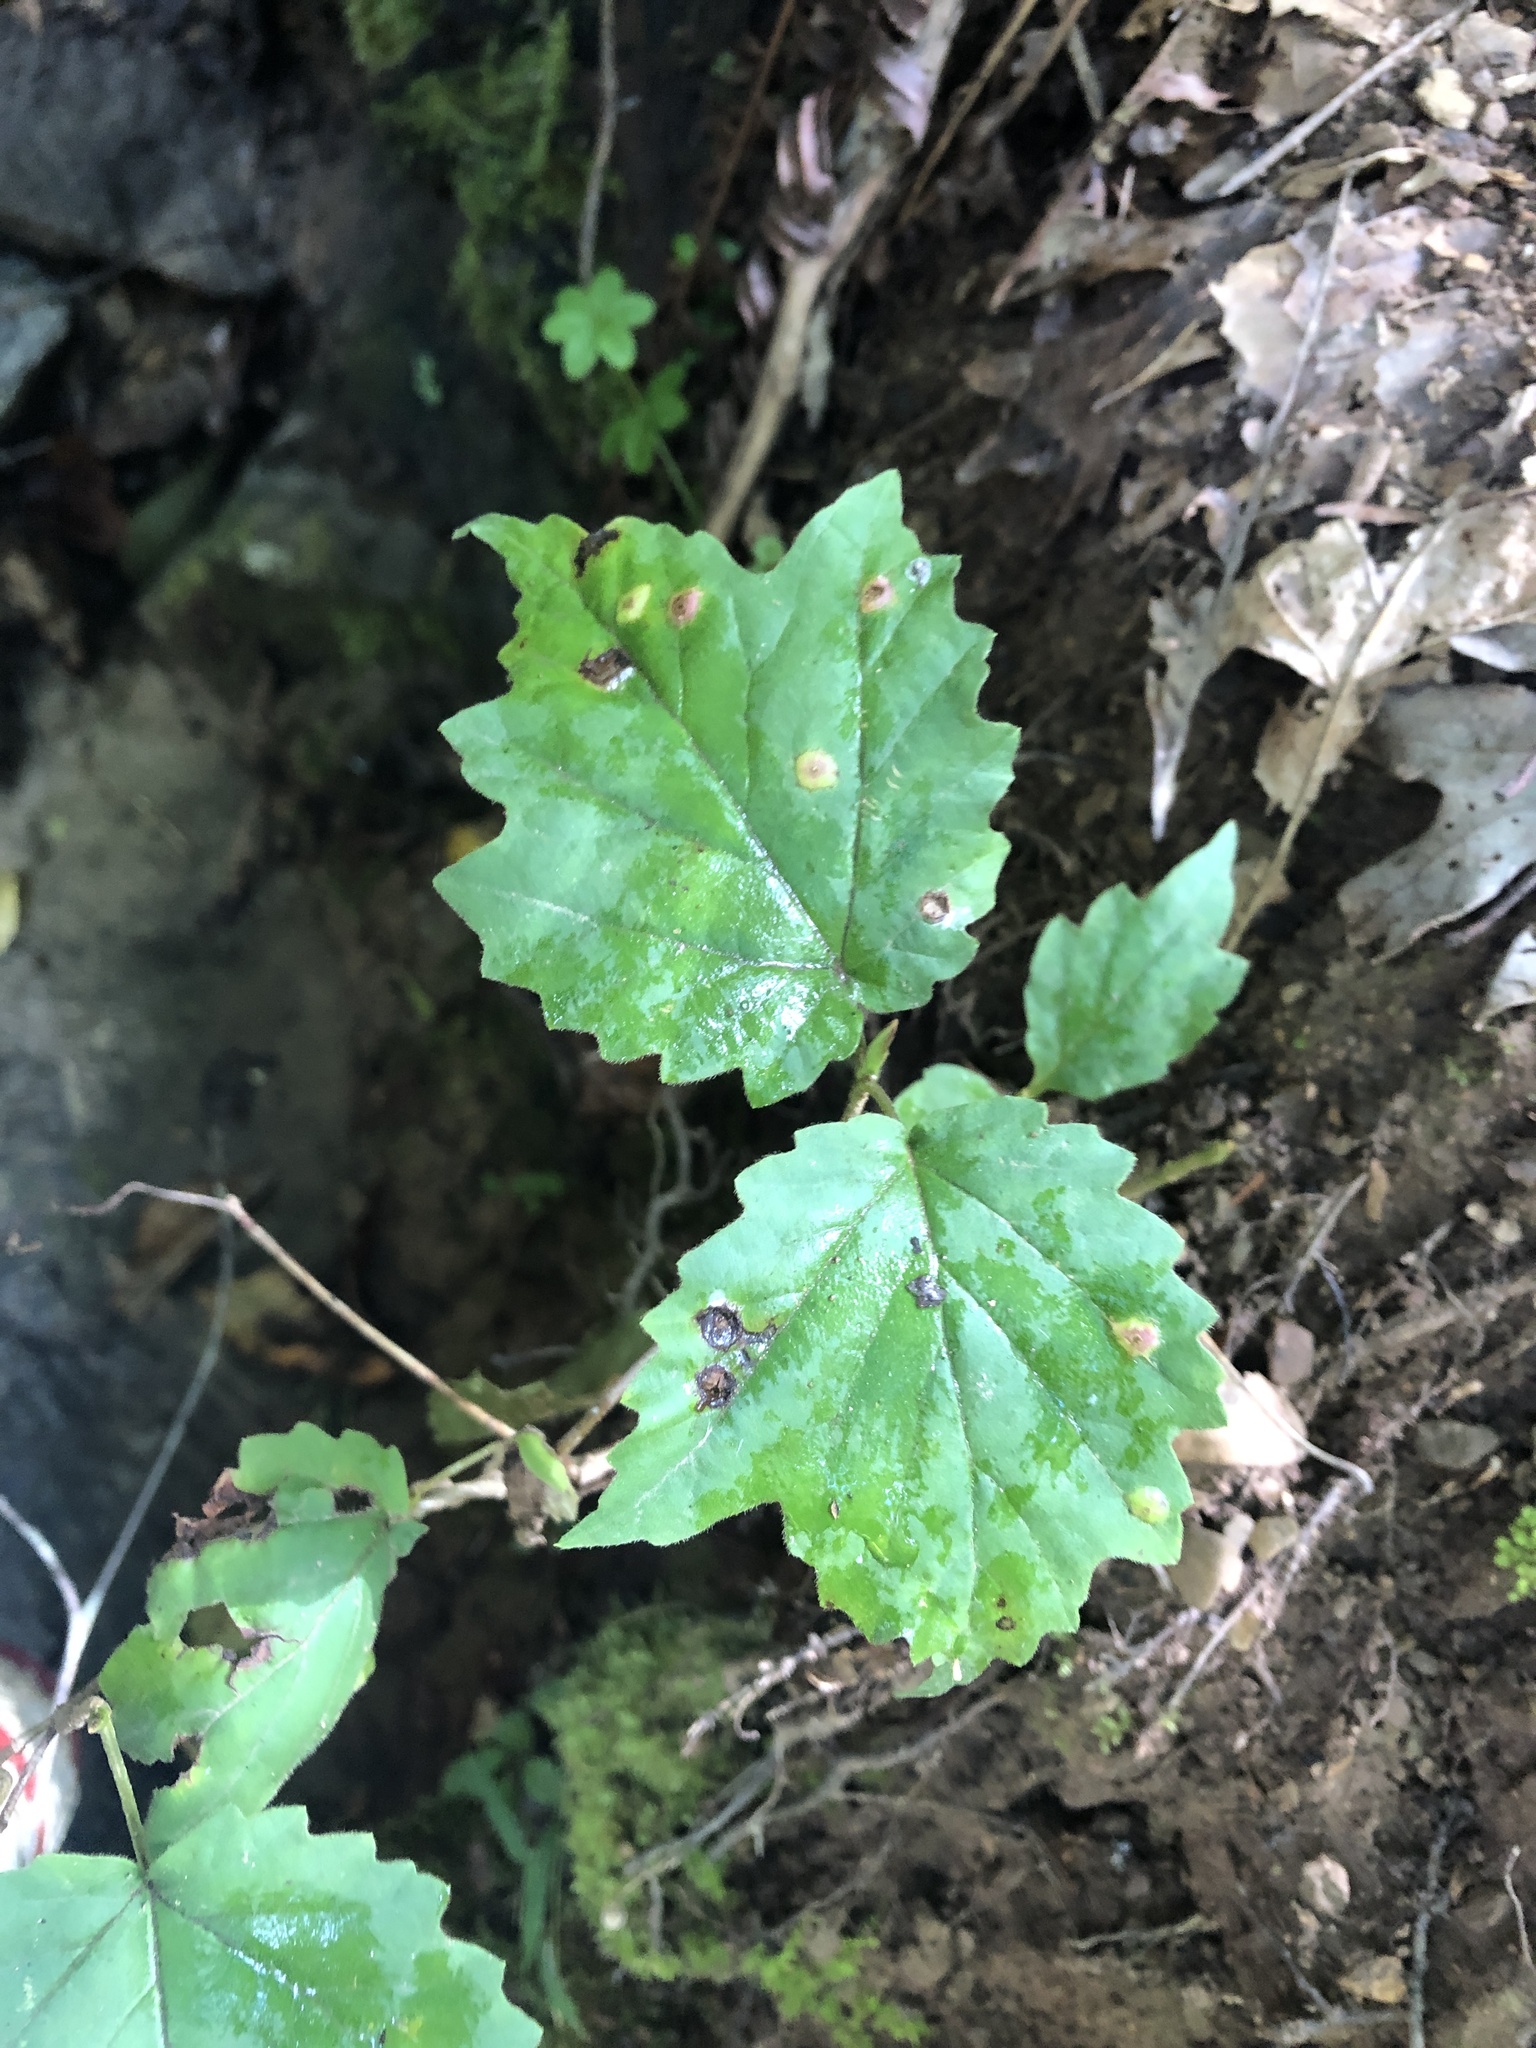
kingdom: Plantae
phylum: Tracheophyta
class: Magnoliopsida
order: Dipsacales
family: Viburnaceae
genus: Viburnum
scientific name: Viburnum acerifolium
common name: Dockmackie
